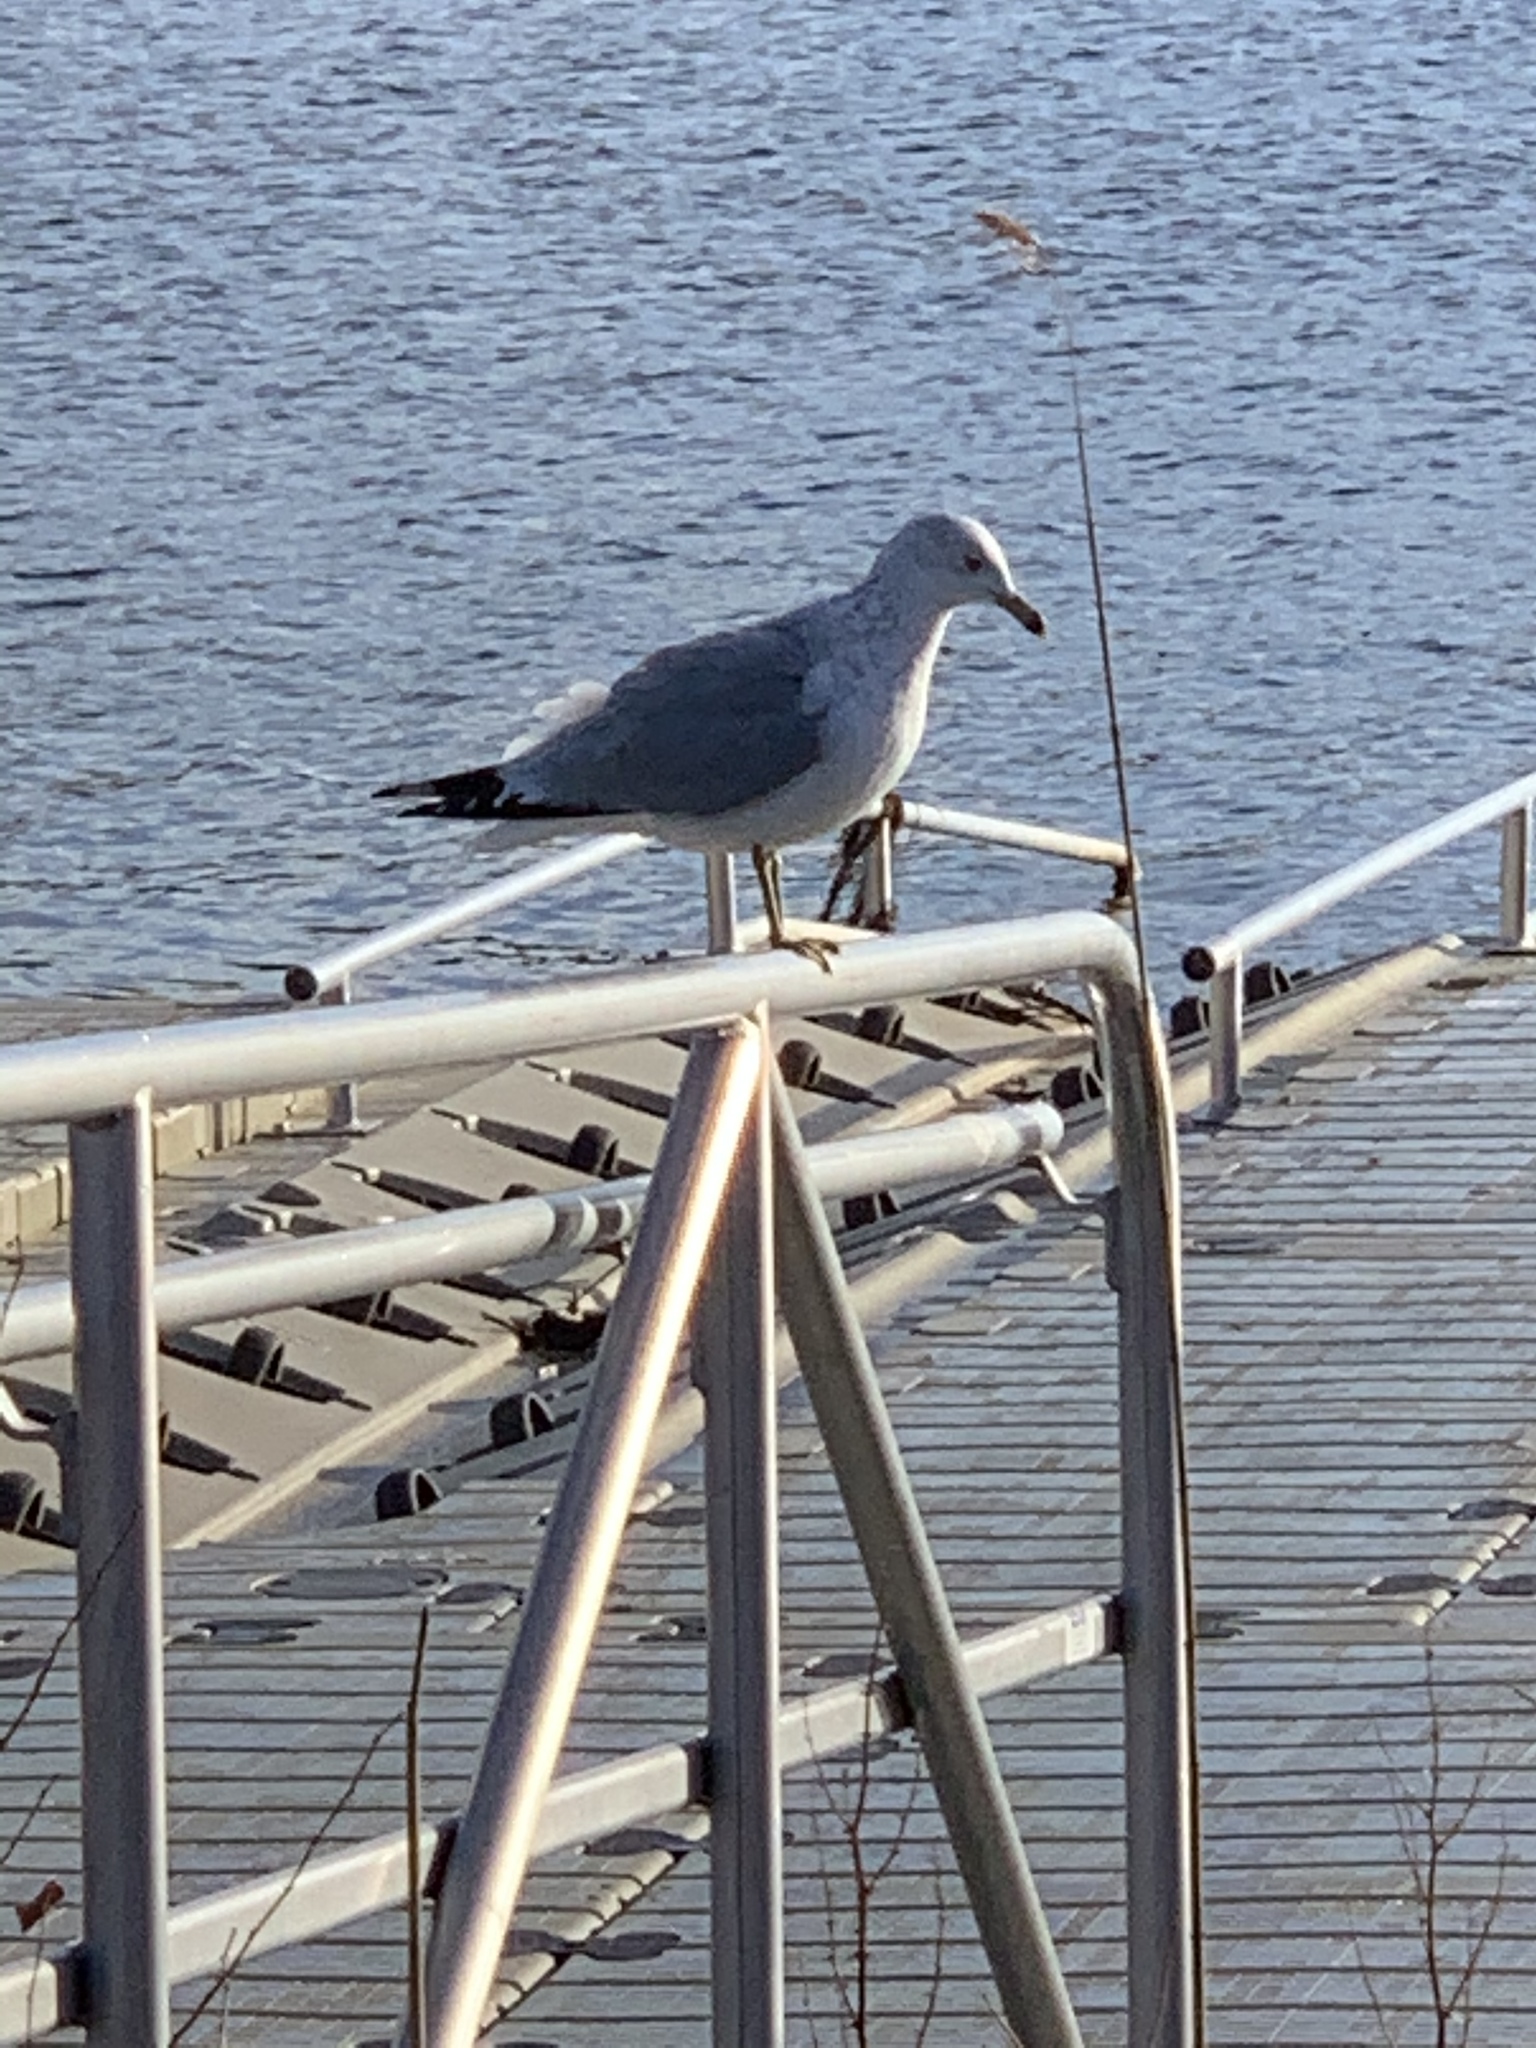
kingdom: Animalia
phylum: Chordata
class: Aves
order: Charadriiformes
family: Laridae
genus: Larus
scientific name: Larus delawarensis
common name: Ring-billed gull
